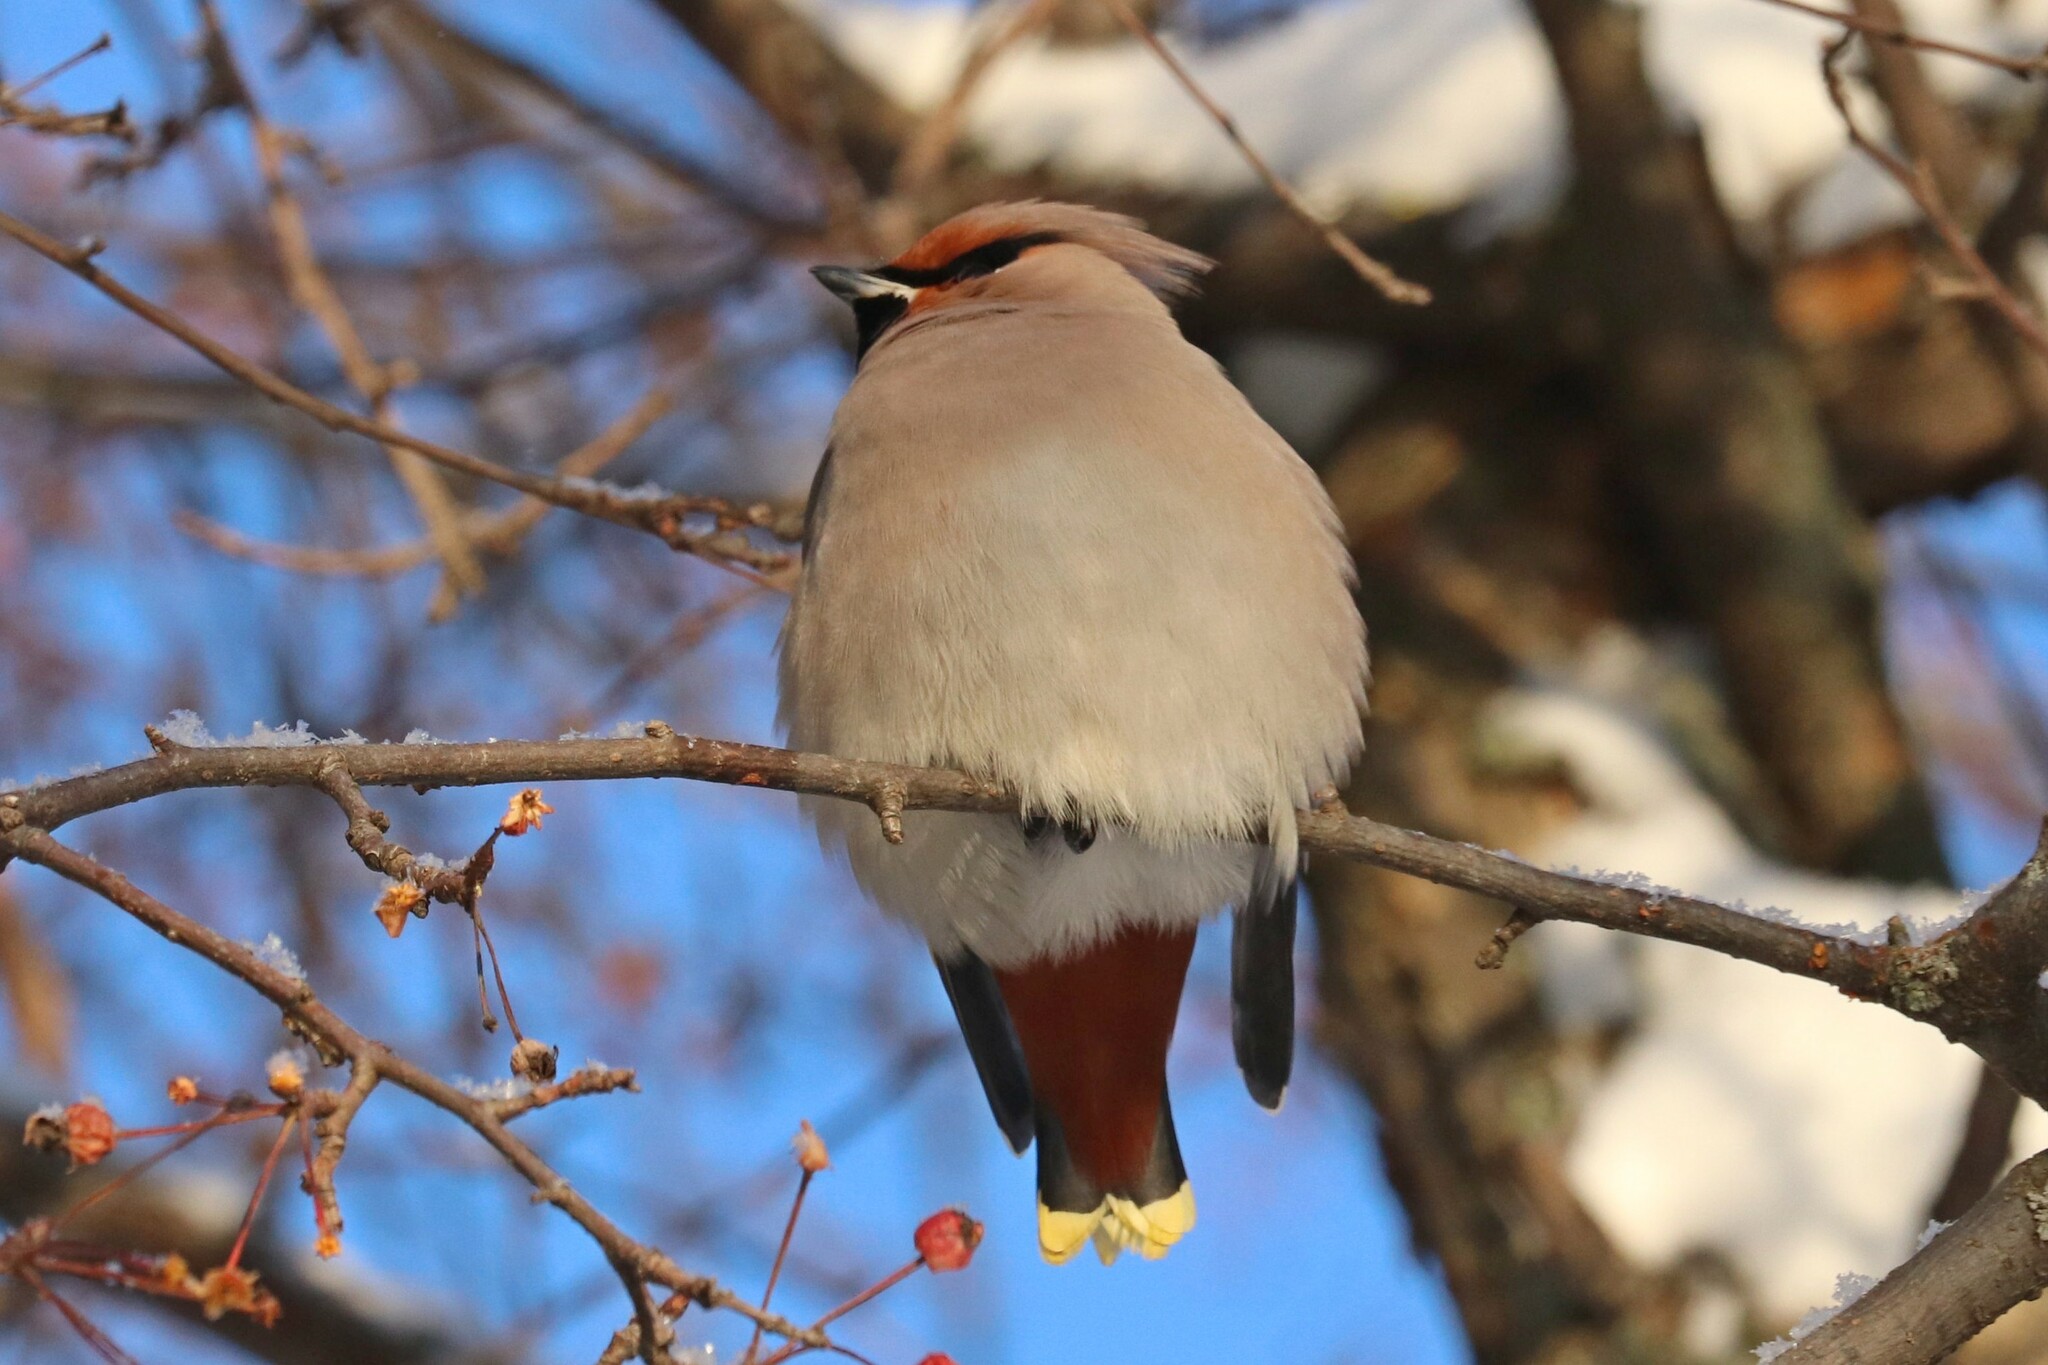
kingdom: Animalia
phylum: Chordata
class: Aves
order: Passeriformes
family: Bombycillidae
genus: Bombycilla
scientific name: Bombycilla garrulus
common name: Bohemian waxwing
